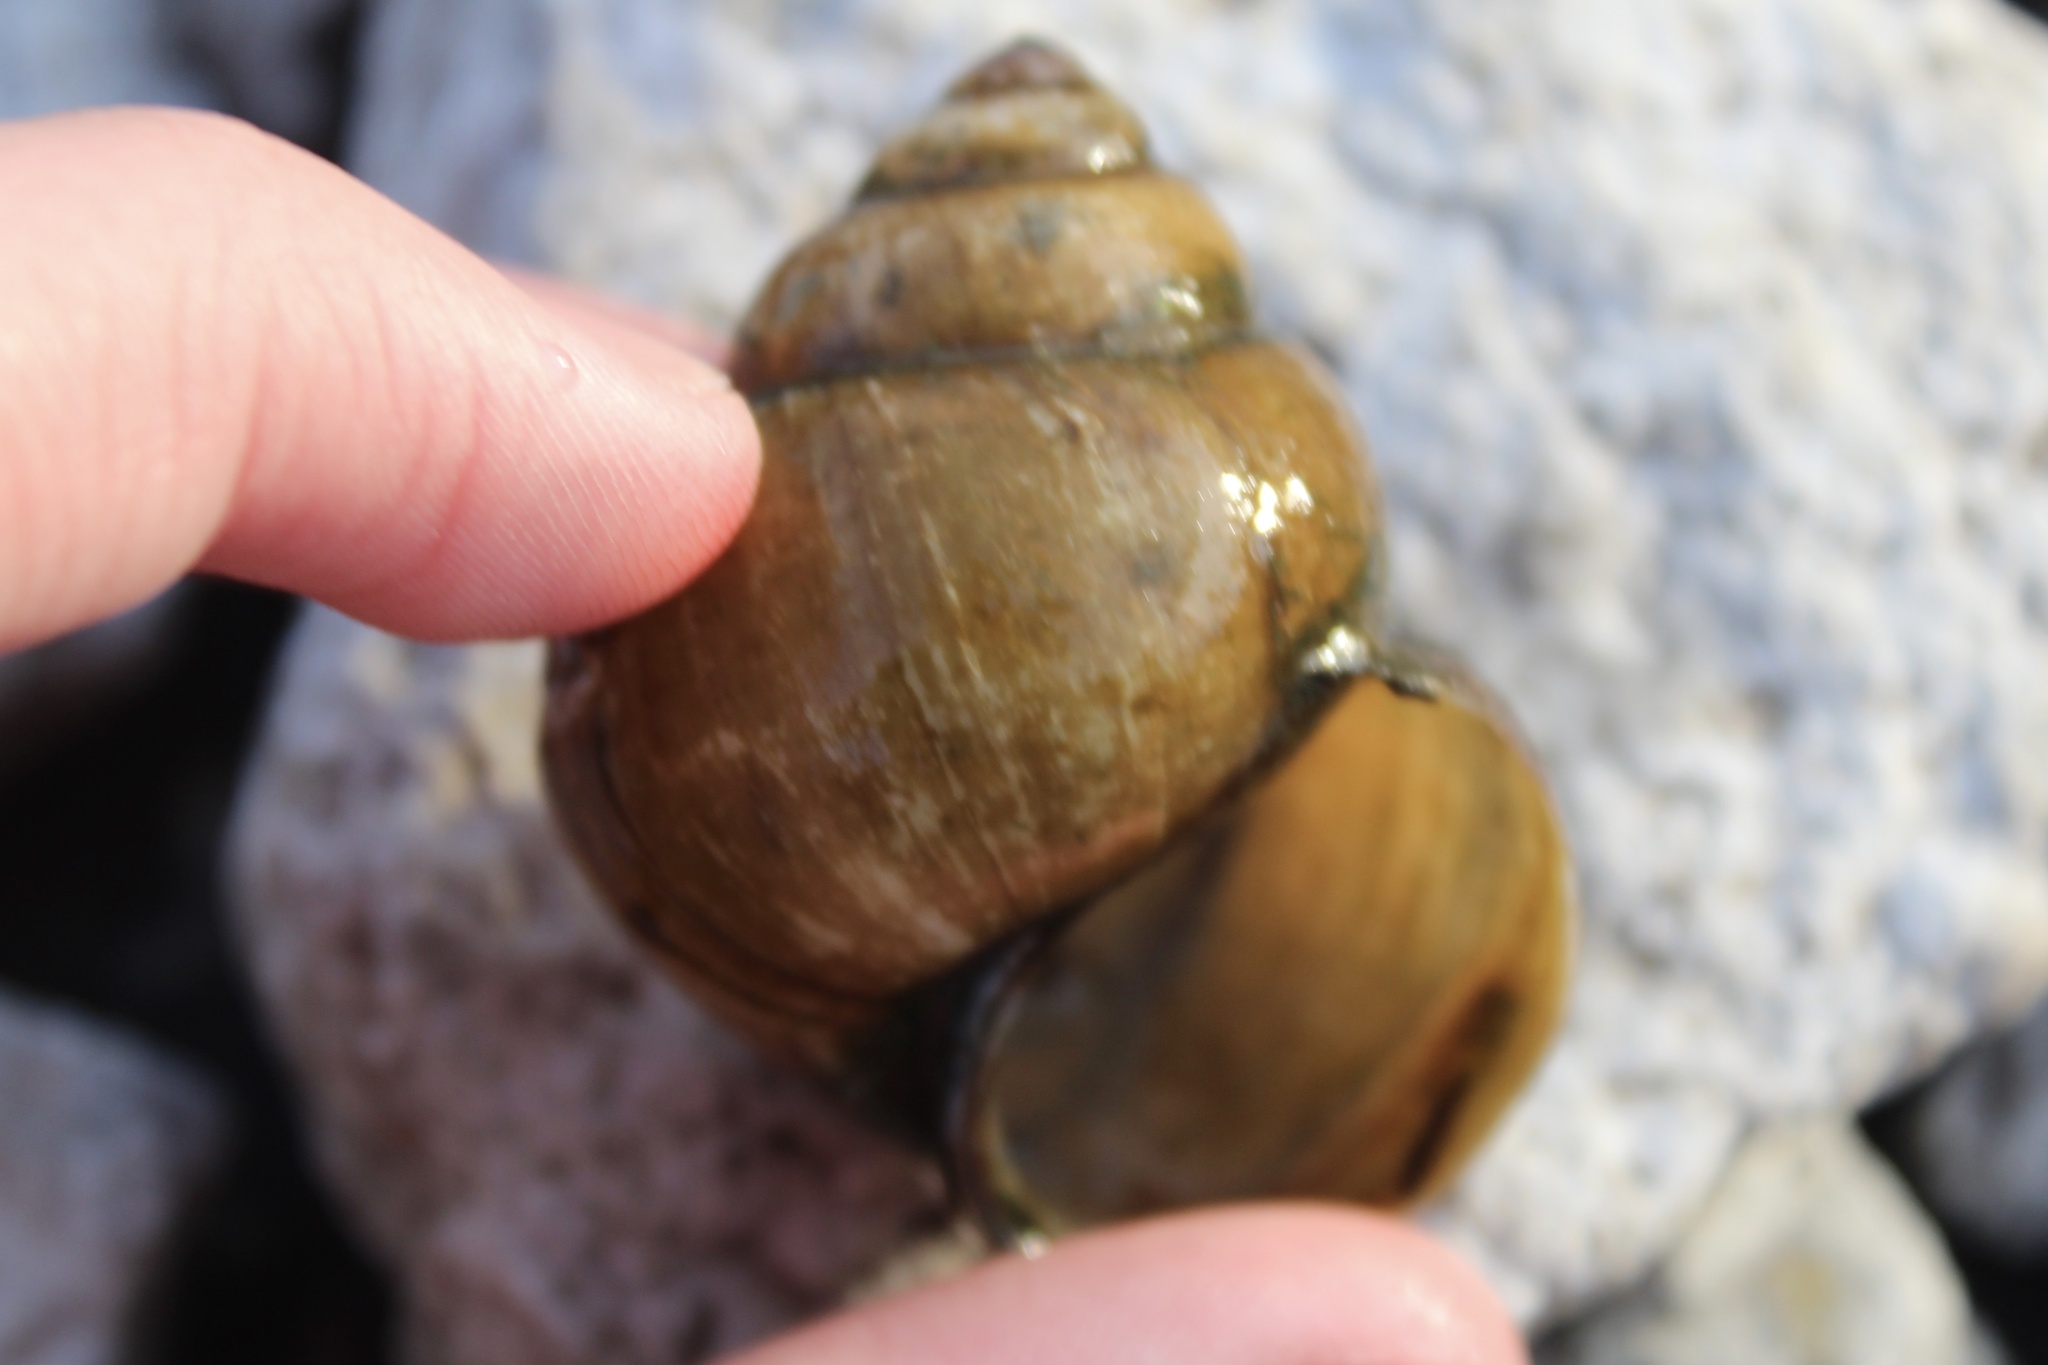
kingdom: Animalia
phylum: Mollusca
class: Gastropoda
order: Architaenioglossa
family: Viviparidae
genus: Cipangopaludina
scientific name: Cipangopaludina chinensis
